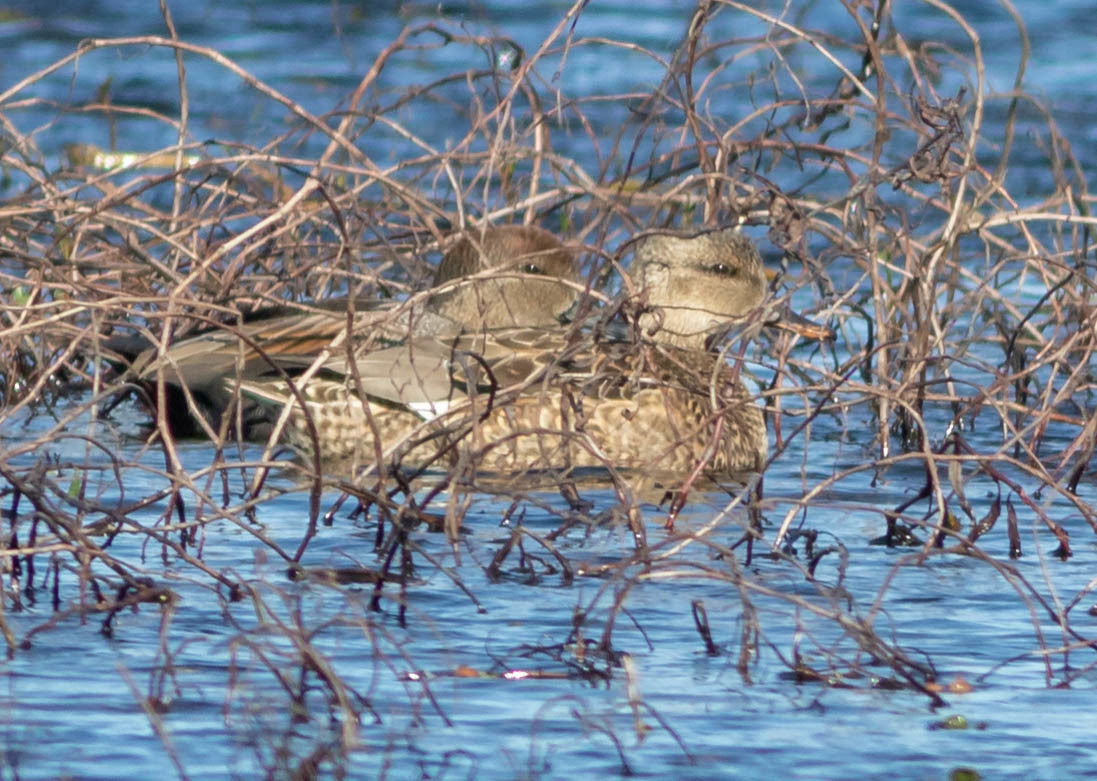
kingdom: Animalia
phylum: Chordata
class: Aves
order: Anseriformes
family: Anatidae
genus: Mareca
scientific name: Mareca strepera
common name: Gadwall
